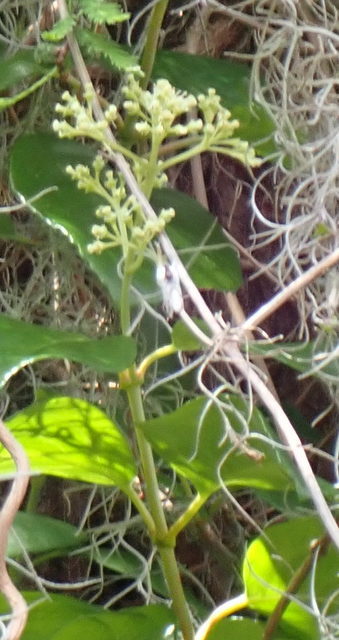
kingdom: Plantae
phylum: Tracheophyta
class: Magnoliopsida
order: Cornales
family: Hydrangeaceae
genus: Hydrangea
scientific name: Hydrangea barbara
